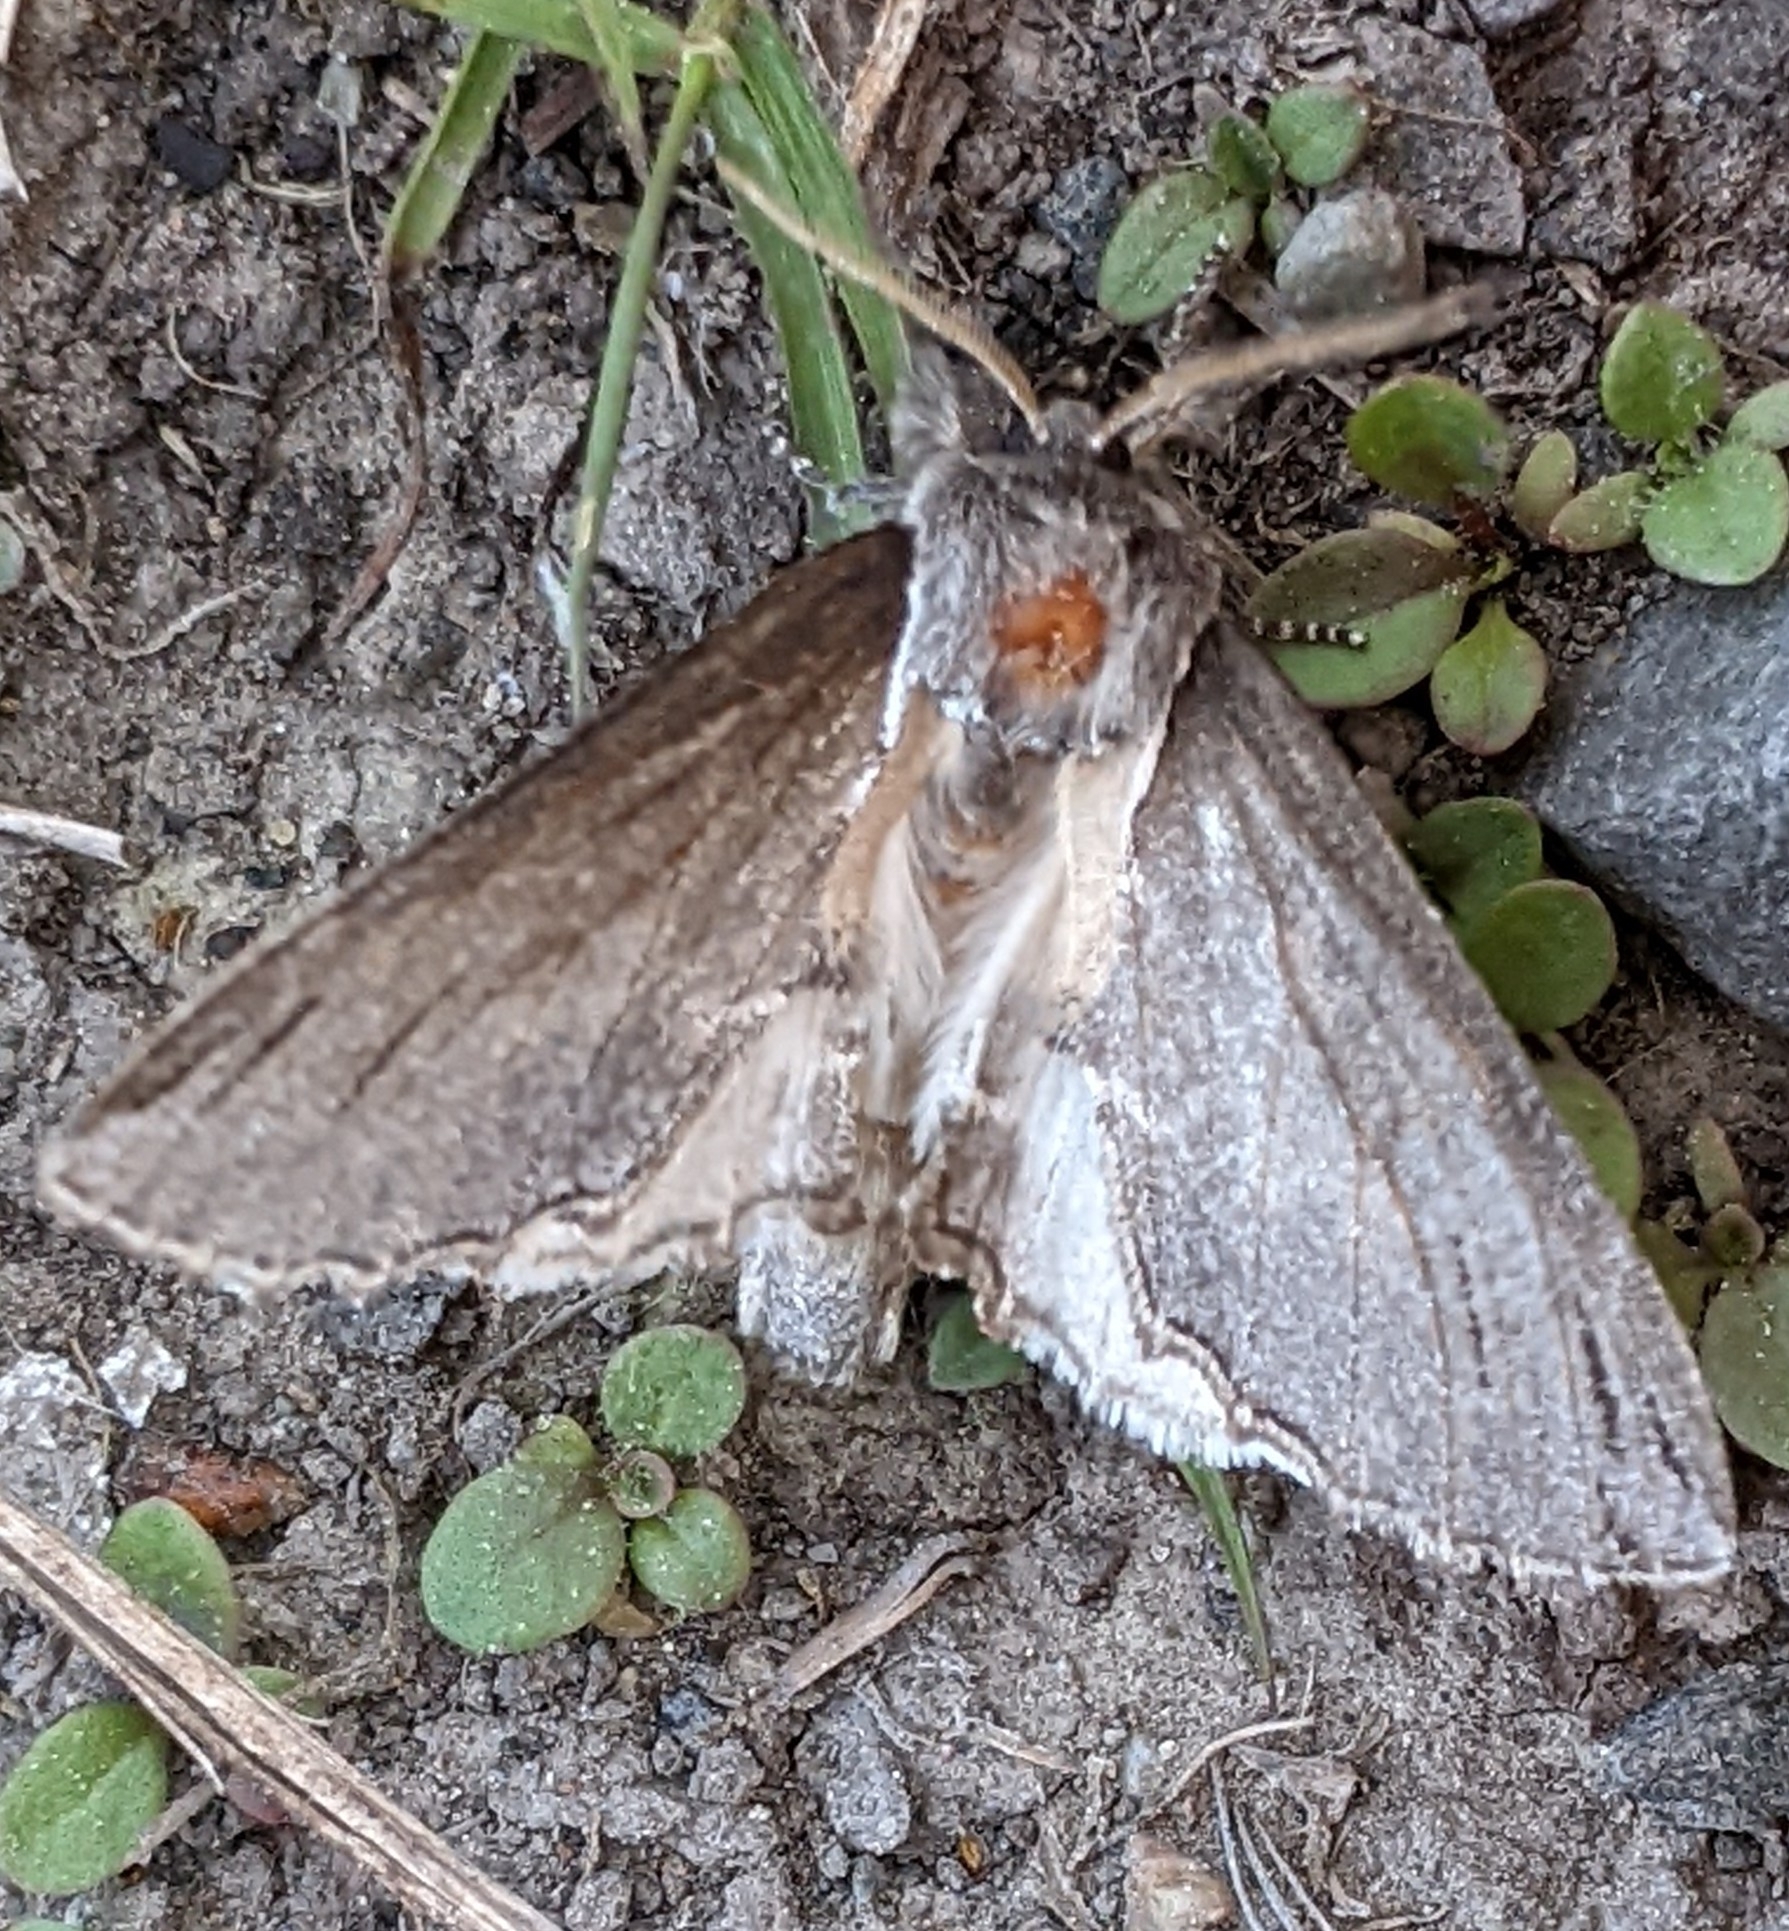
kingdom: Animalia
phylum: Arthropoda
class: Insecta
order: Lepidoptera
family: Notodontidae
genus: Pheosidea
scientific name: Pheosidea elegans
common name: Elegant prominent
